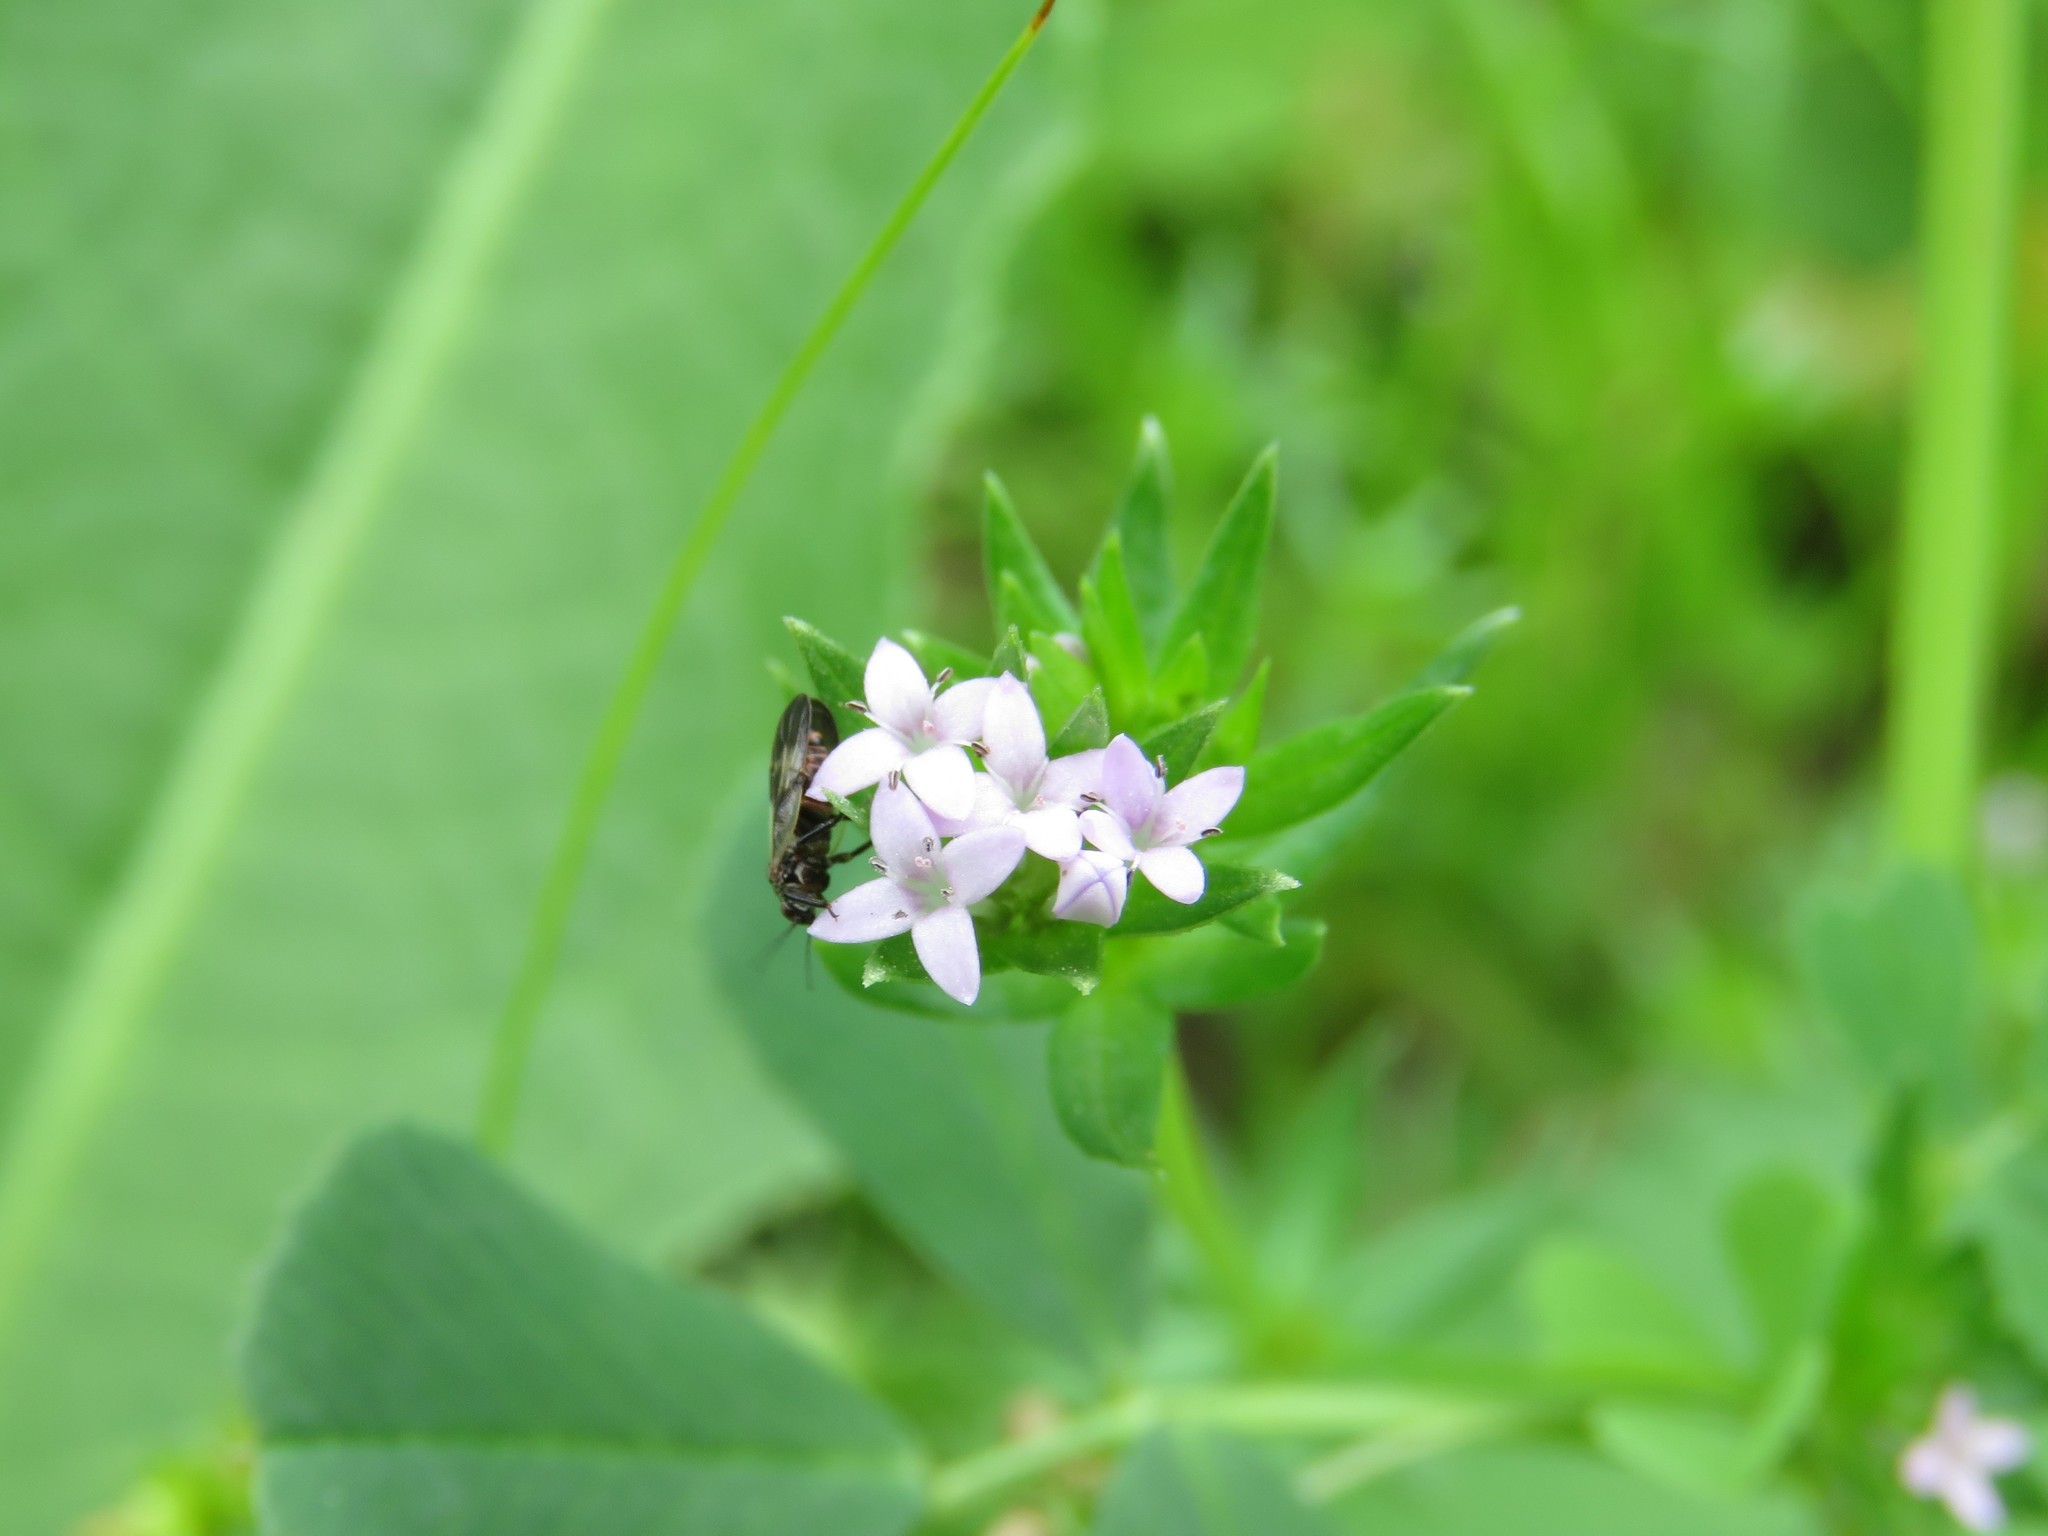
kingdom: Plantae
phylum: Tracheophyta
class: Magnoliopsida
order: Gentianales
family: Rubiaceae
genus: Sherardia
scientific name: Sherardia arvensis
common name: Field madder
